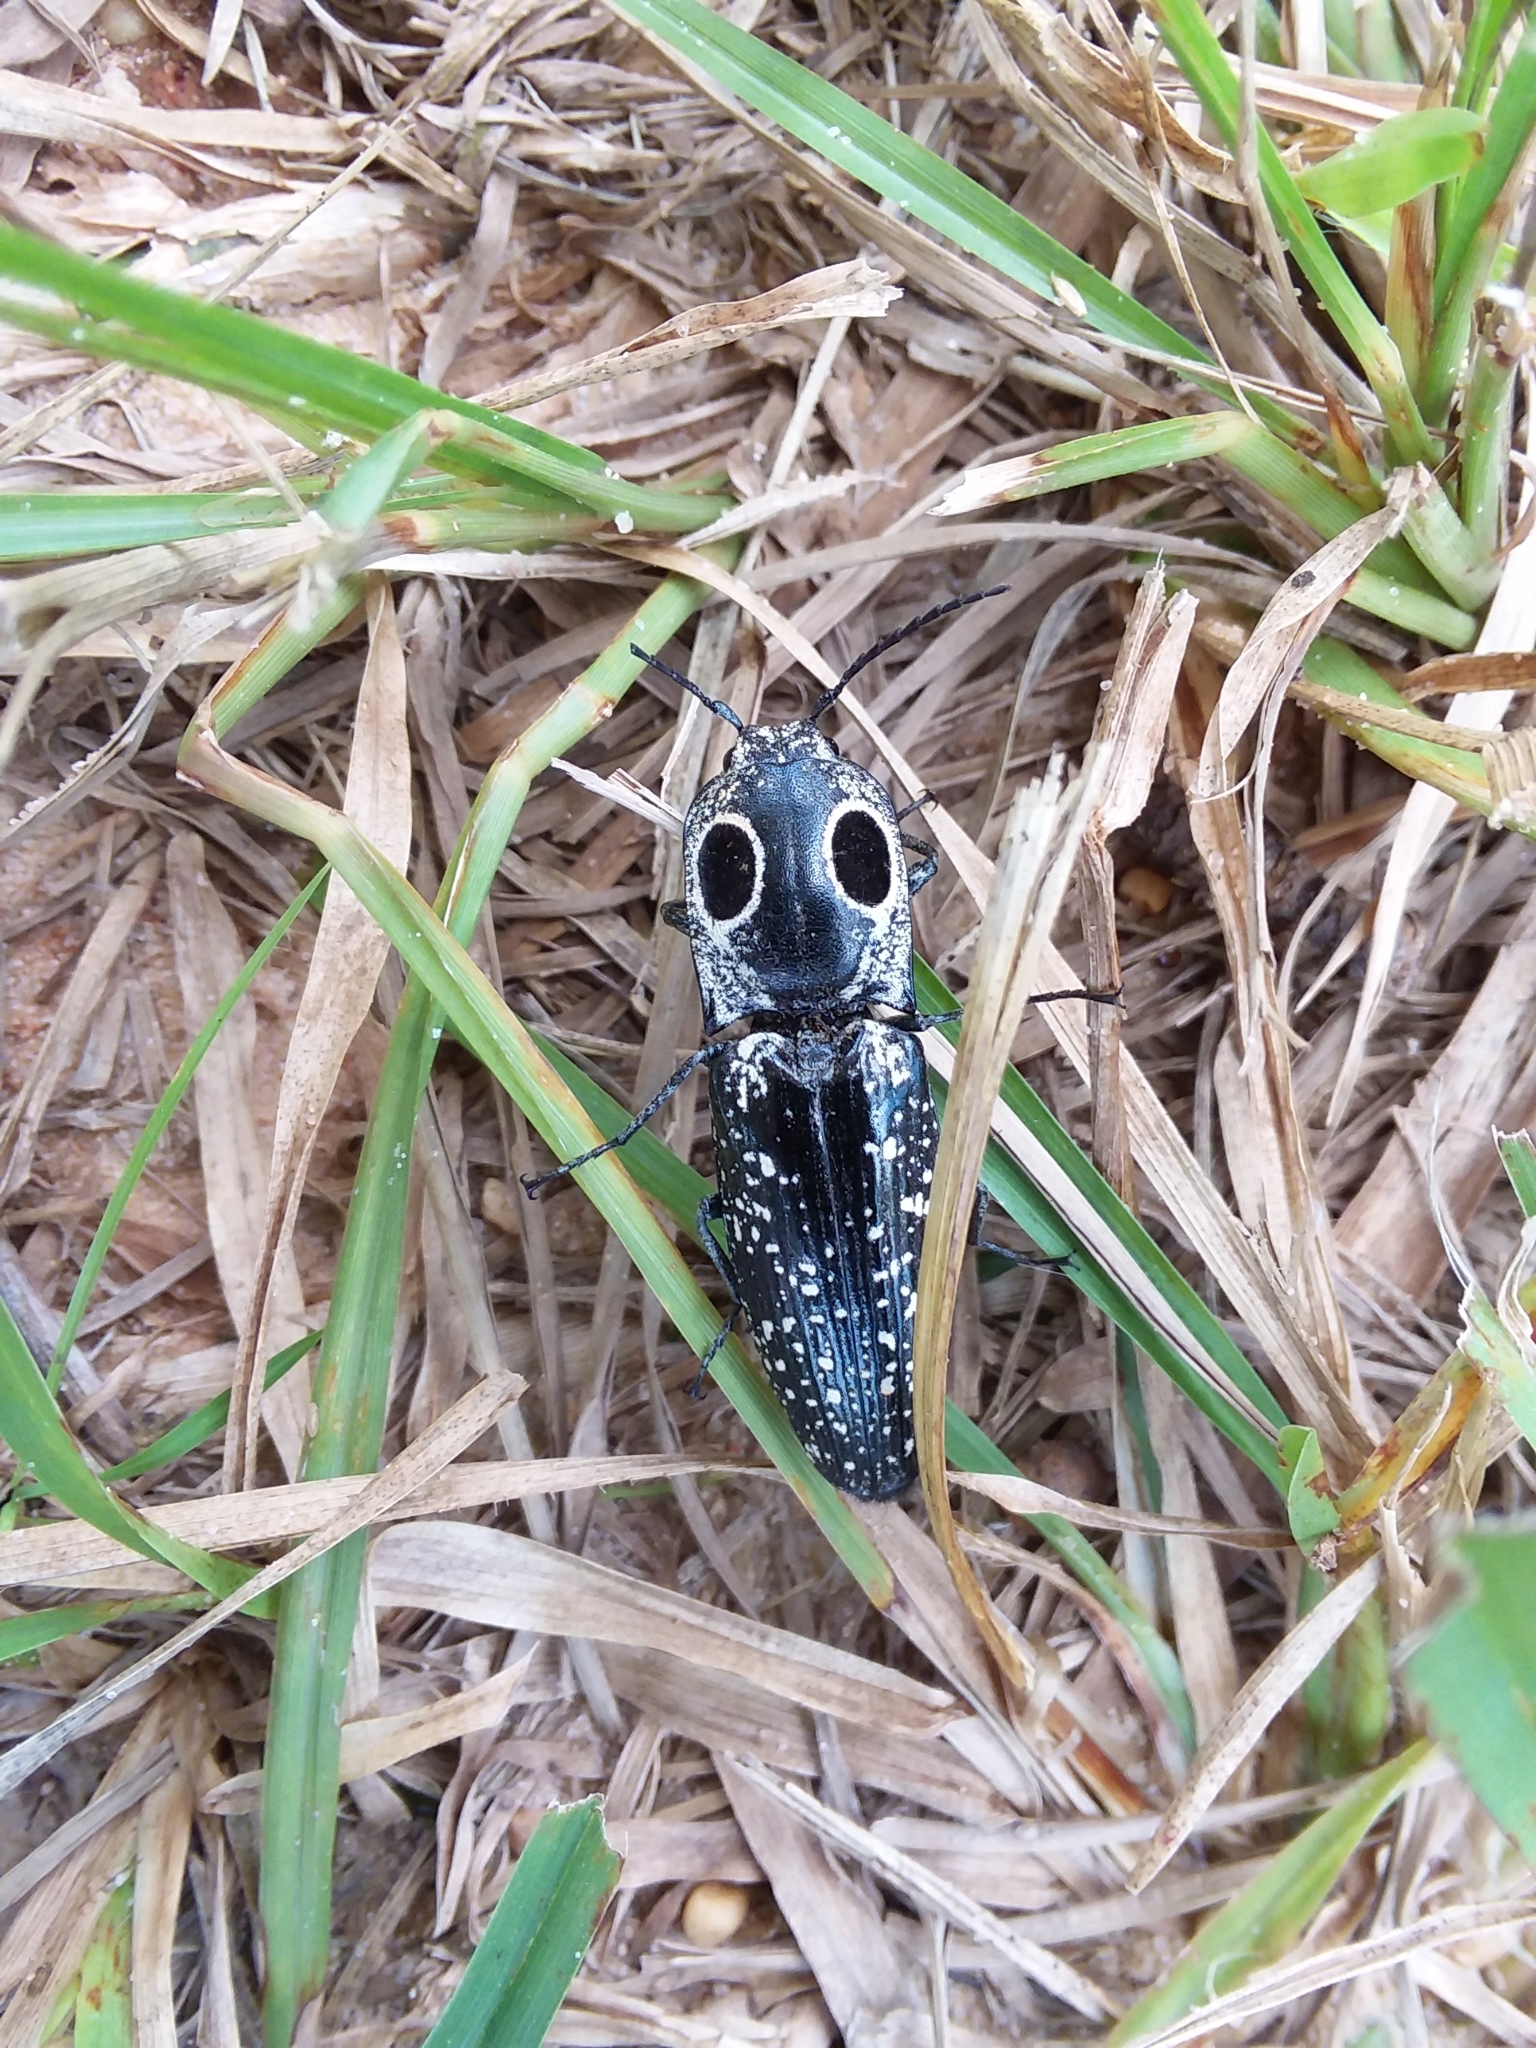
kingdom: Animalia
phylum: Arthropoda
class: Insecta
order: Coleoptera
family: Elateridae
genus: Alaus
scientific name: Alaus oculatus
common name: Eastern eyed click beetle
